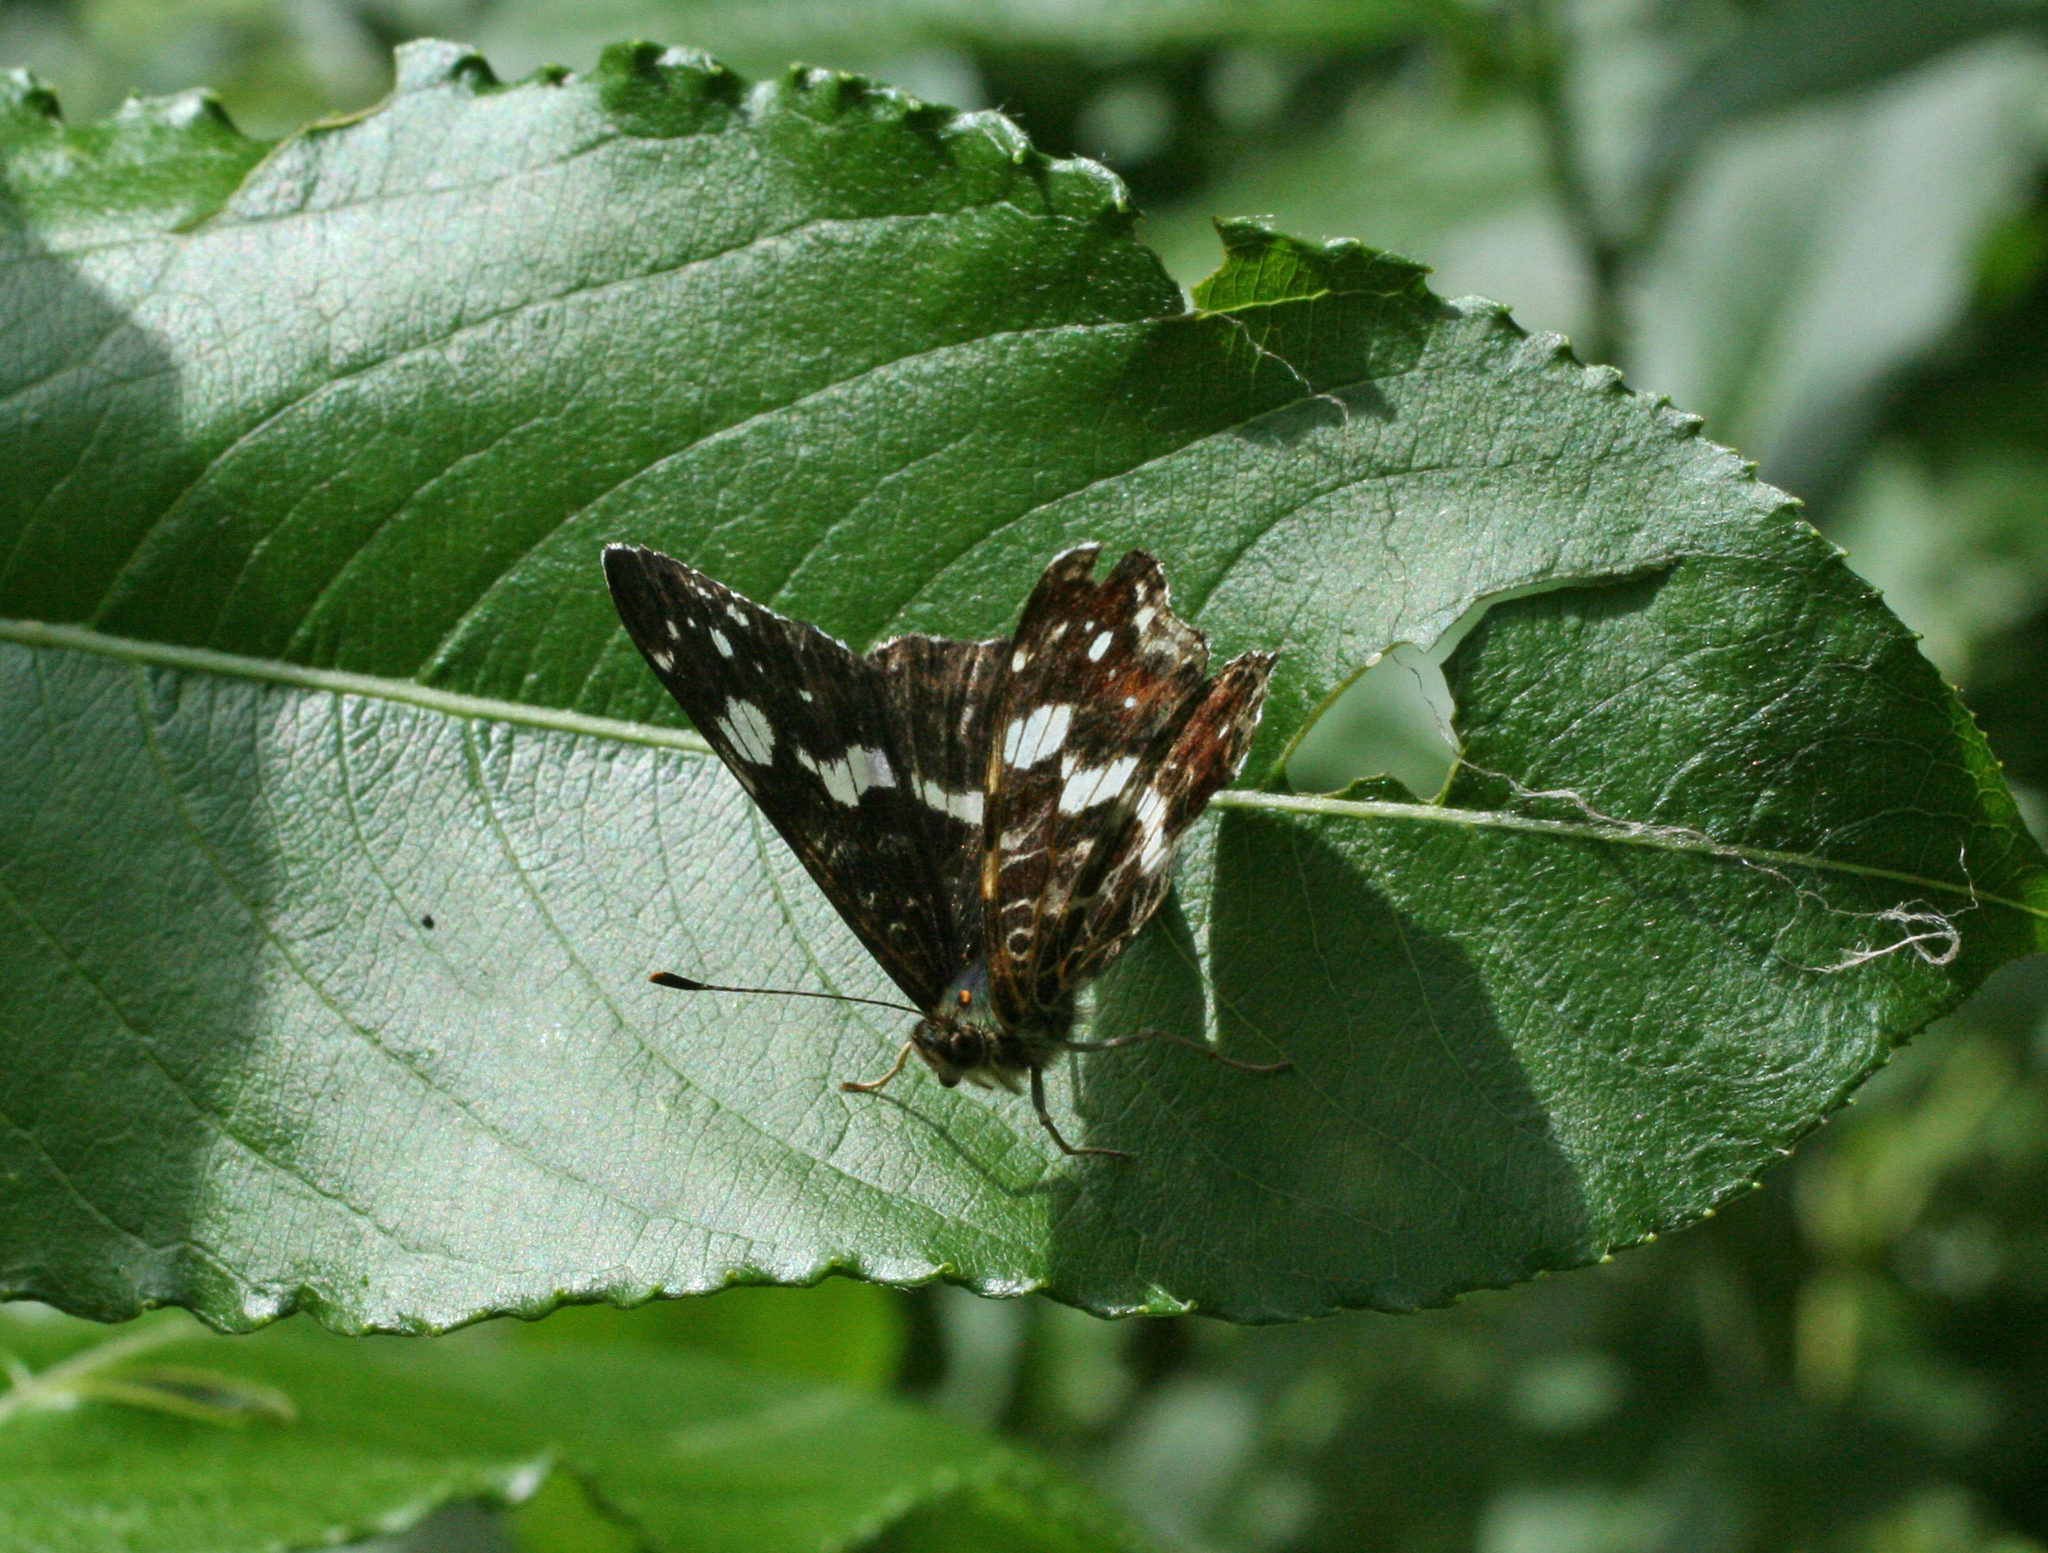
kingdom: Animalia
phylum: Arthropoda
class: Insecta
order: Lepidoptera
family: Nymphalidae
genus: Araschnia
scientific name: Araschnia levana
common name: Map butterfly
